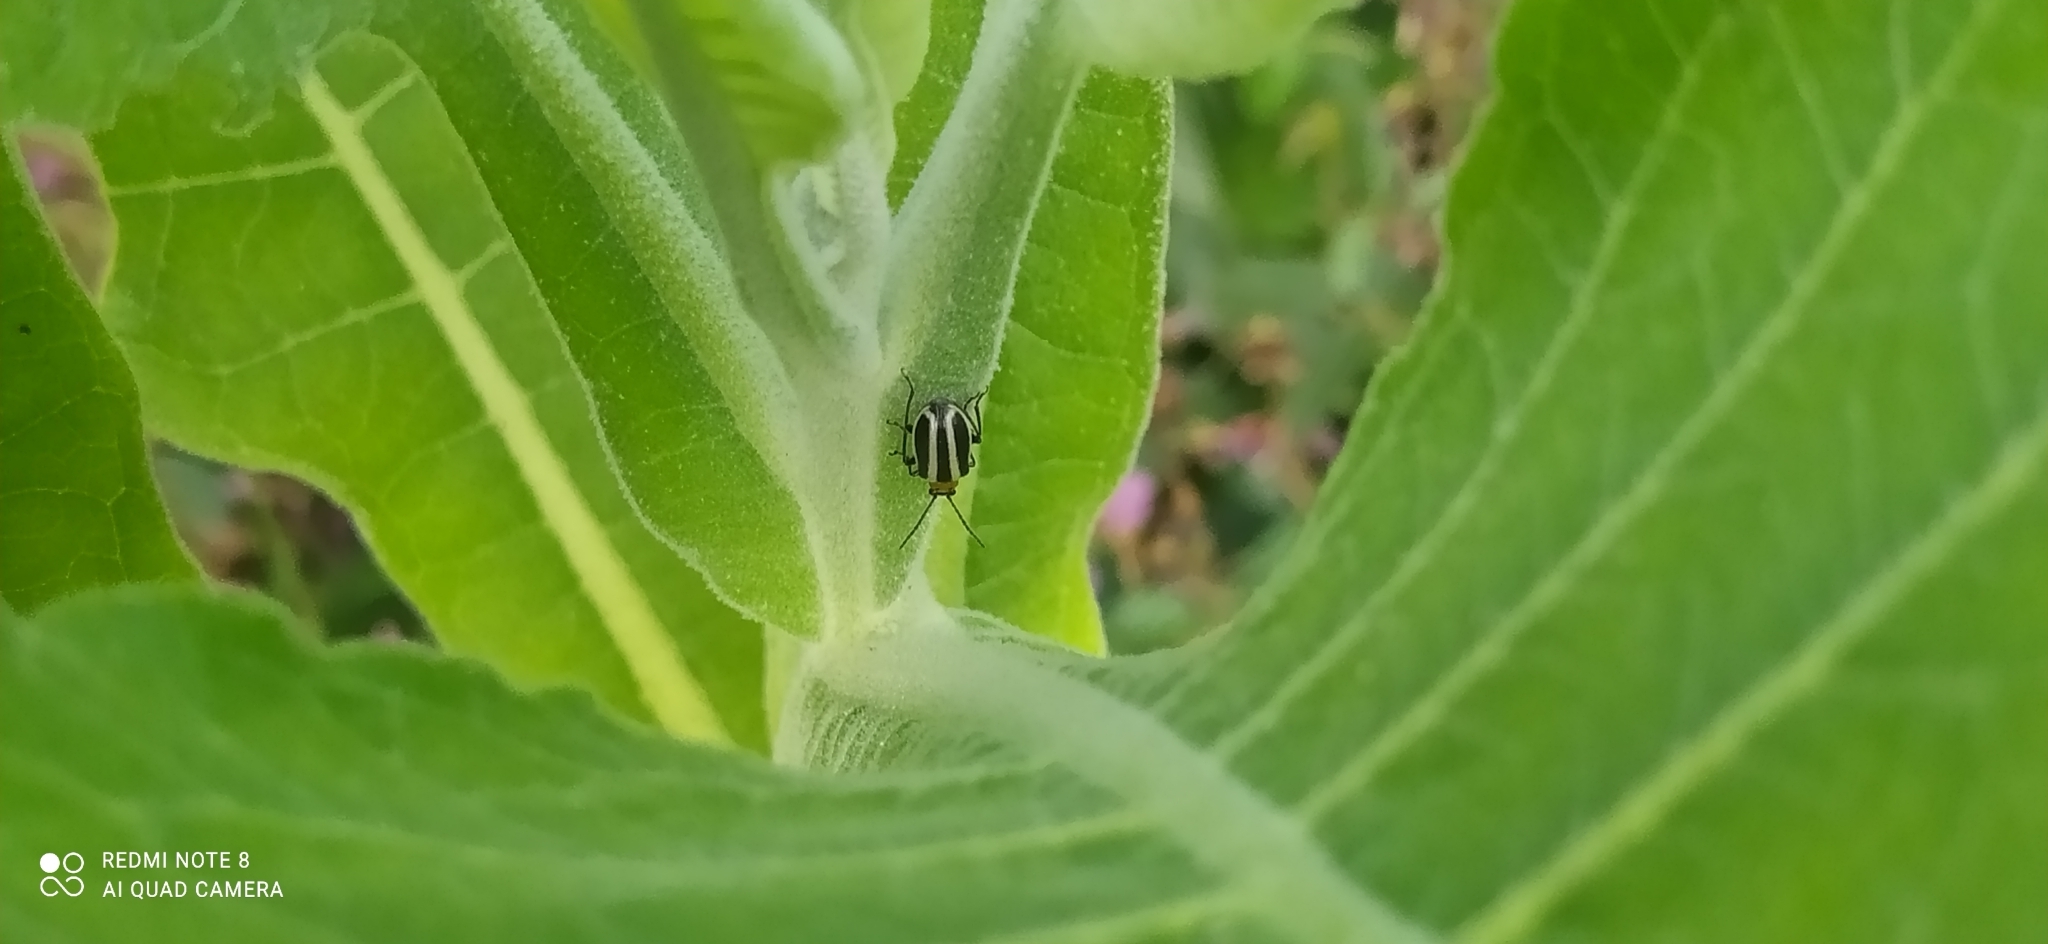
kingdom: Animalia
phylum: Arthropoda
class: Insecta
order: Coleoptera
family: Chrysomelidae
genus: Lema
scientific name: Lema bilineata
